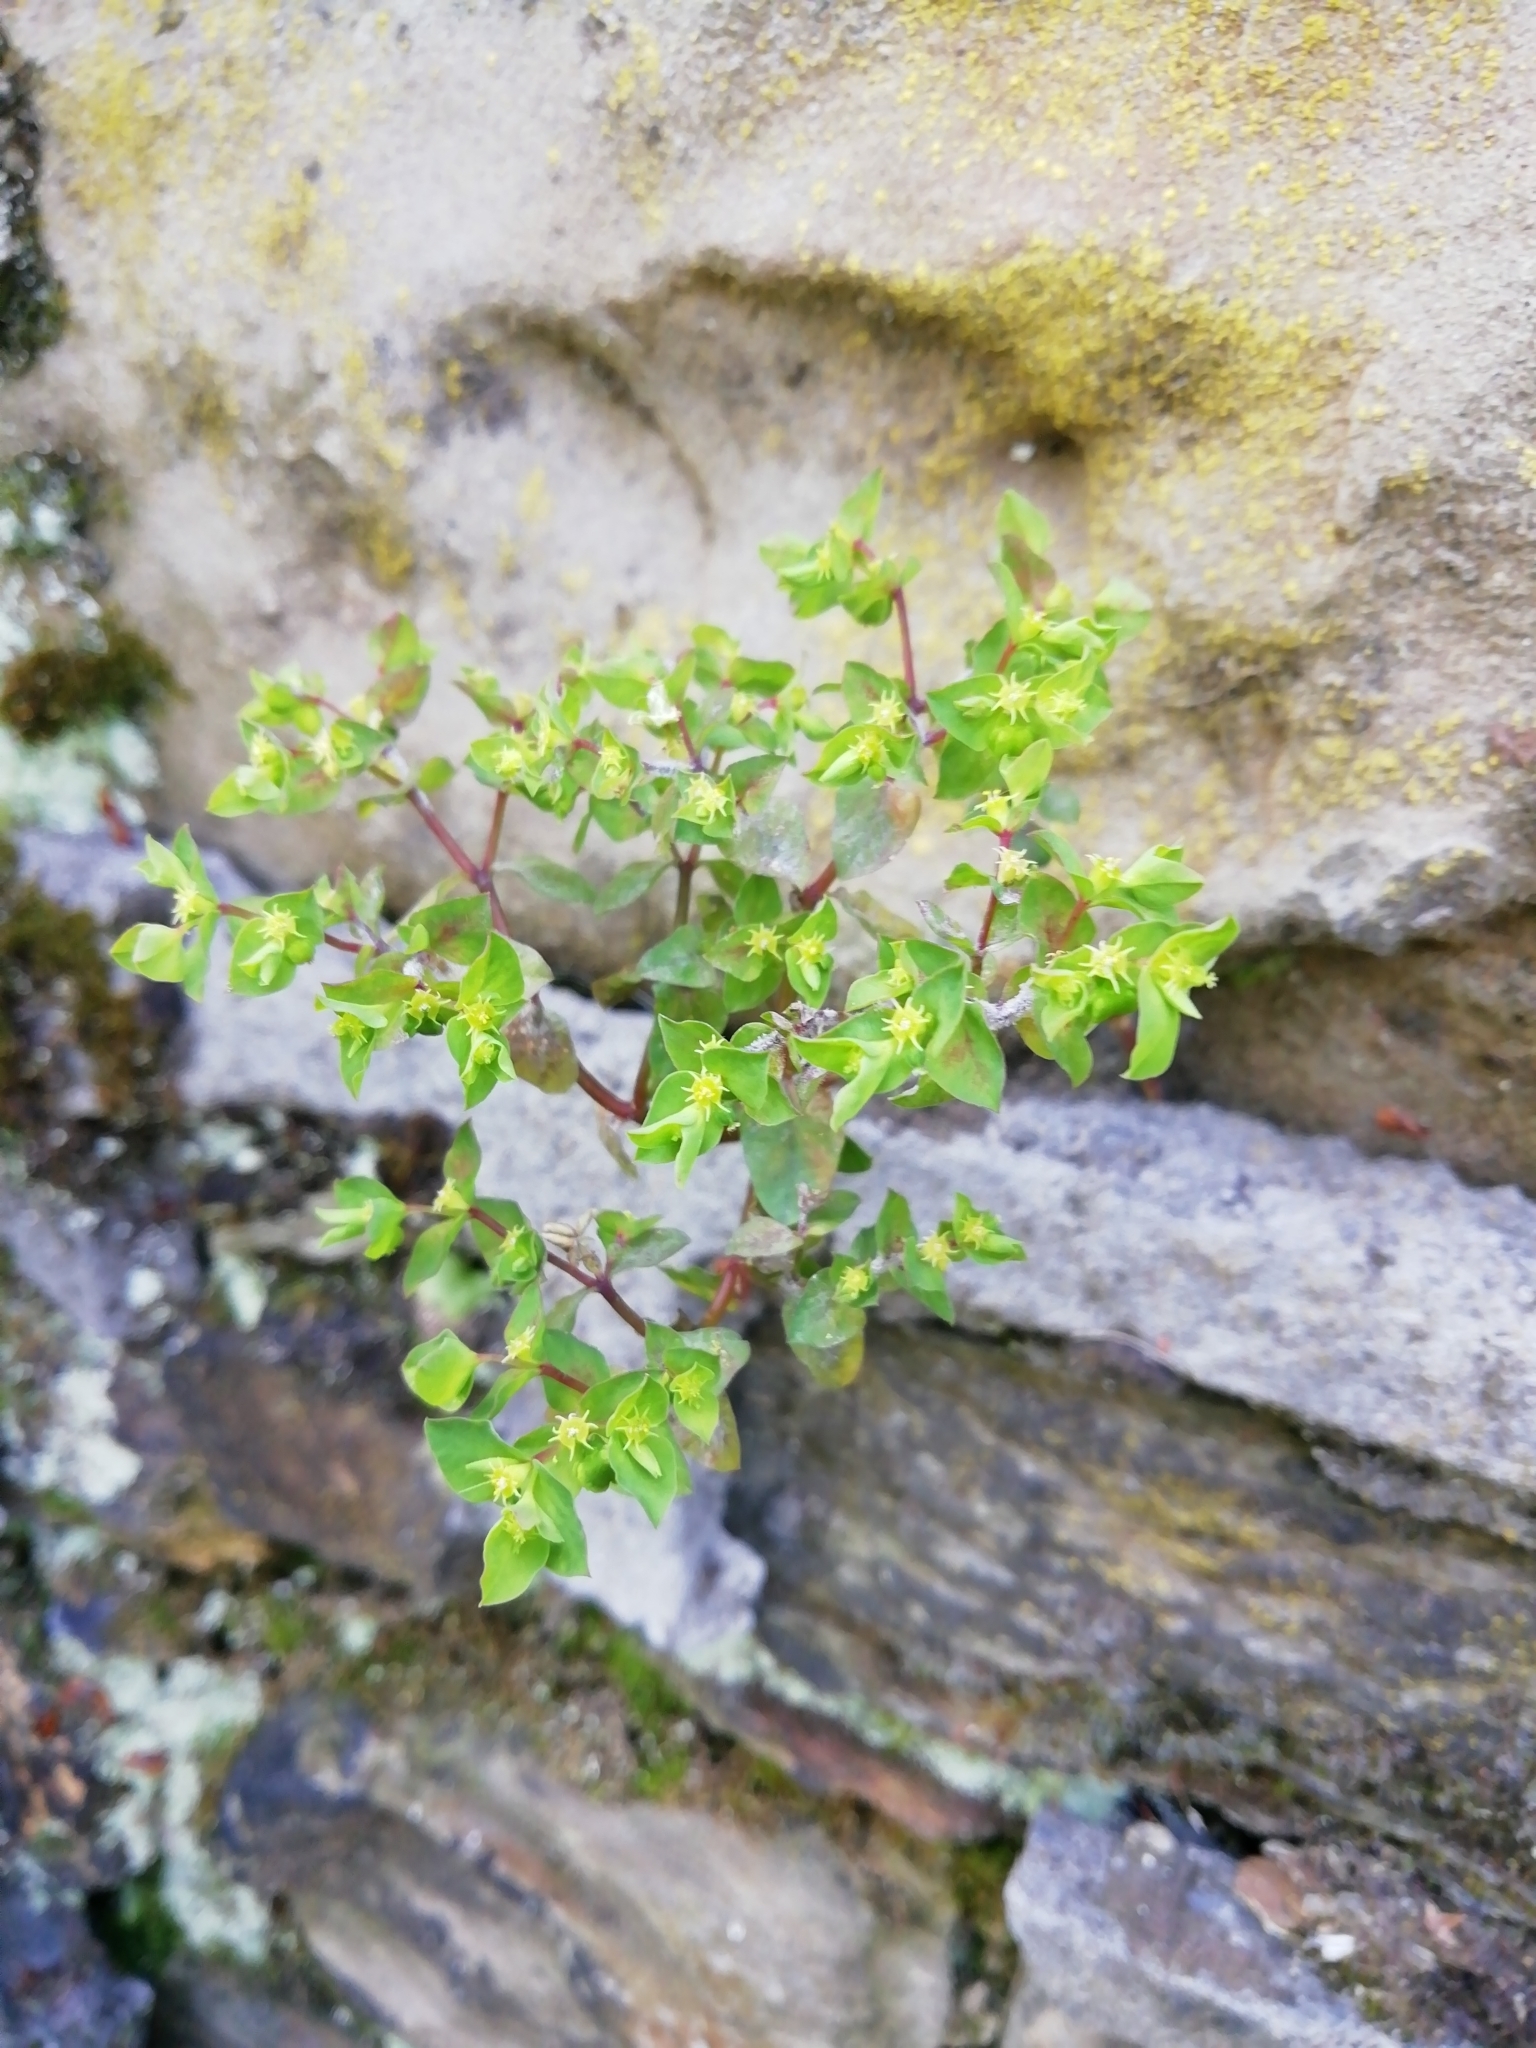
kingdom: Plantae
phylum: Tracheophyta
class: Magnoliopsida
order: Malpighiales
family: Euphorbiaceae
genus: Euphorbia
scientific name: Euphorbia peplus
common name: Petty spurge
